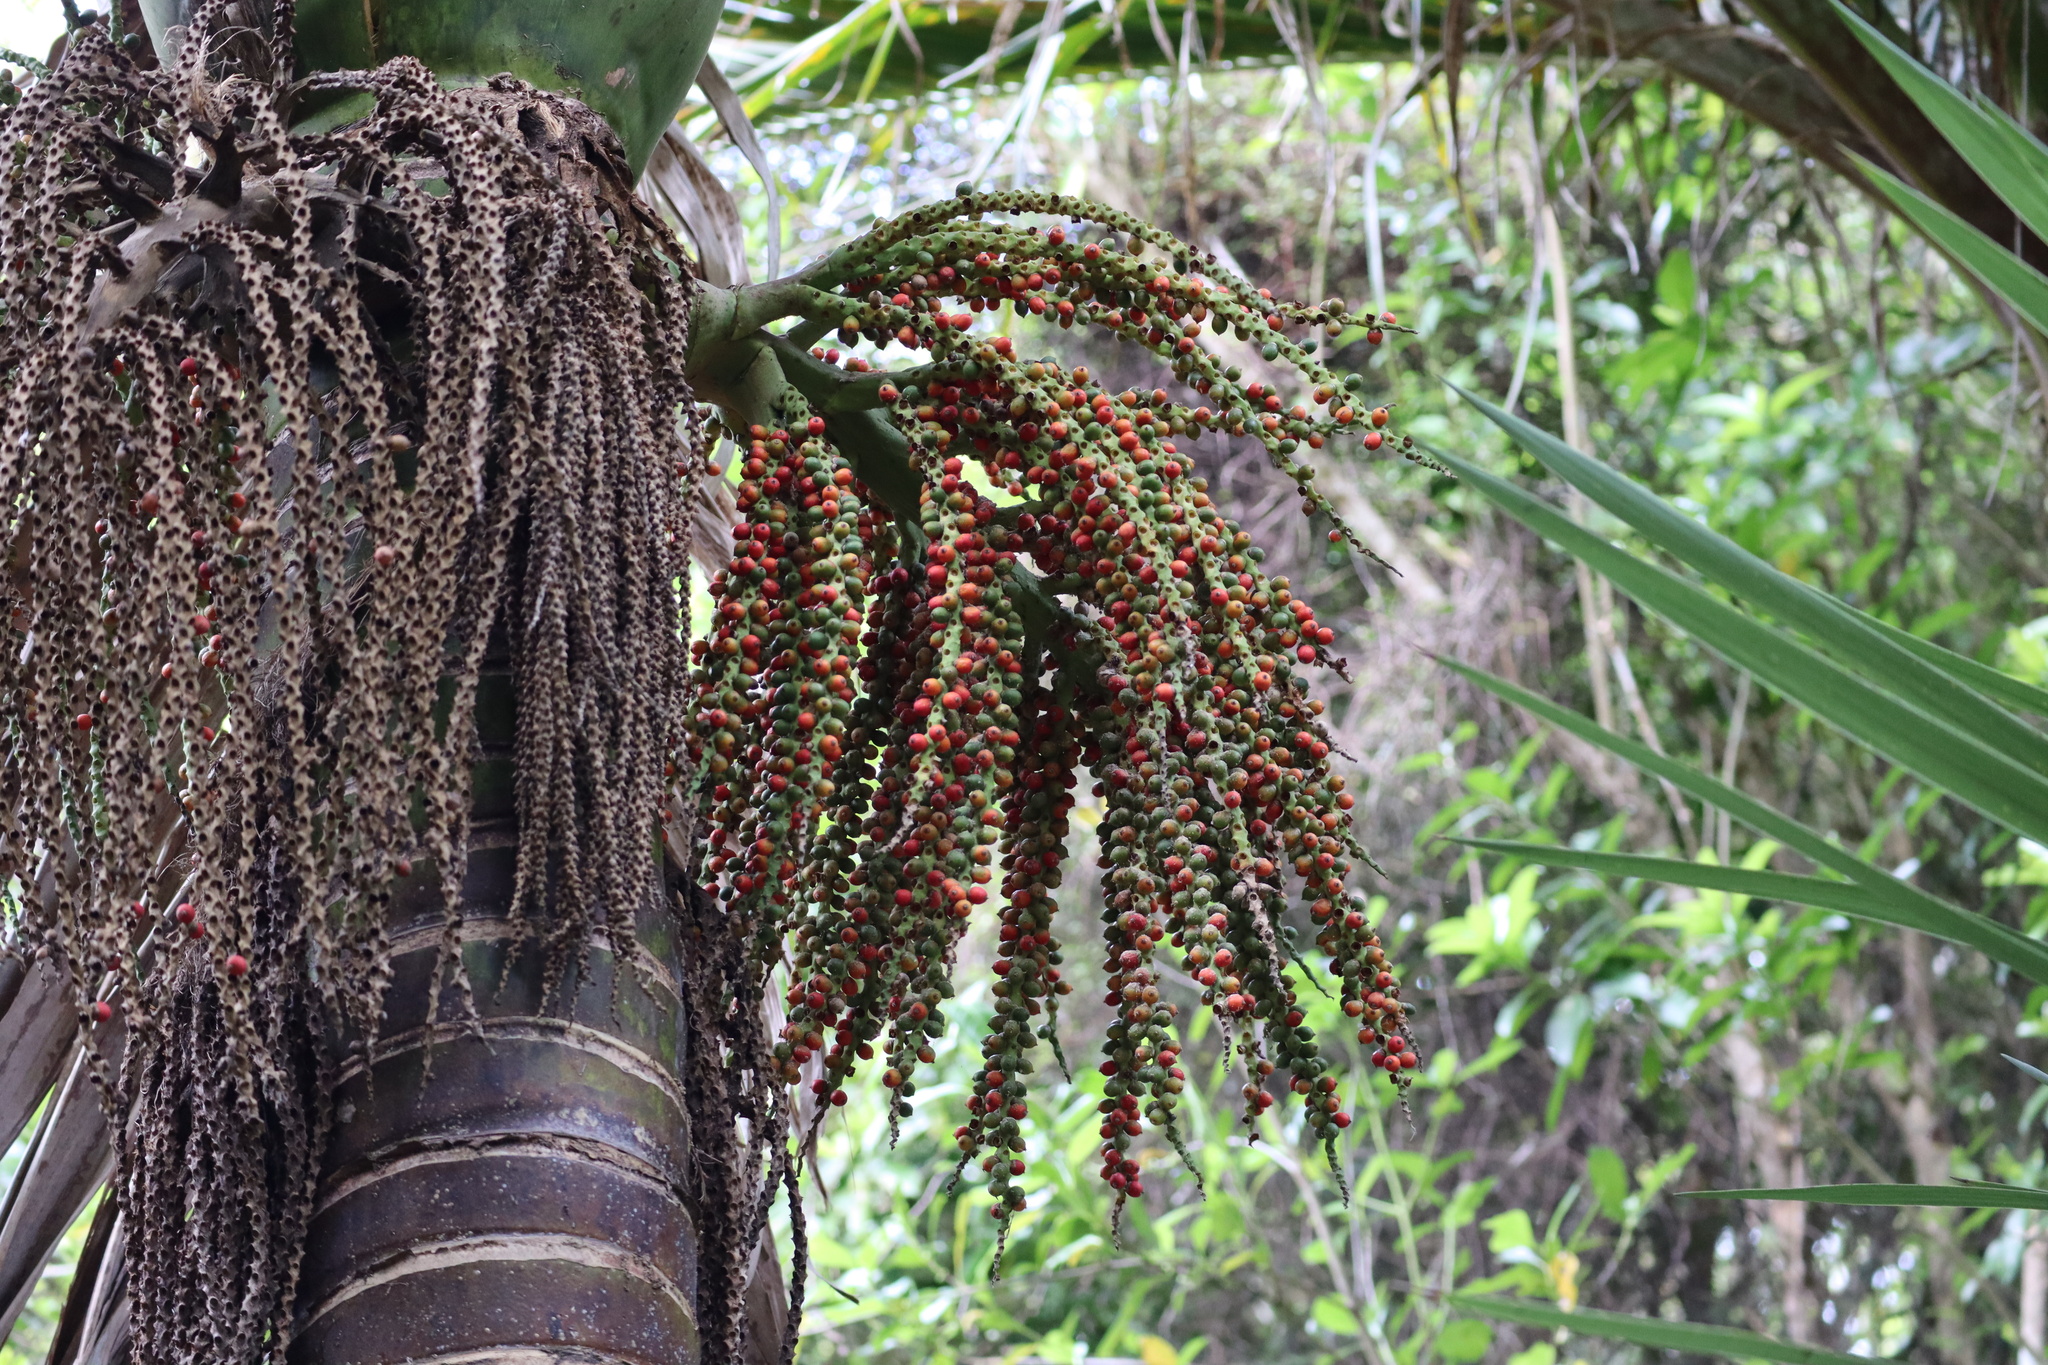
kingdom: Plantae
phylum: Tracheophyta
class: Liliopsida
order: Arecales
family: Arecaceae
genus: Rhopalostylis
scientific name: Rhopalostylis sapida
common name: Feather-duster palm
